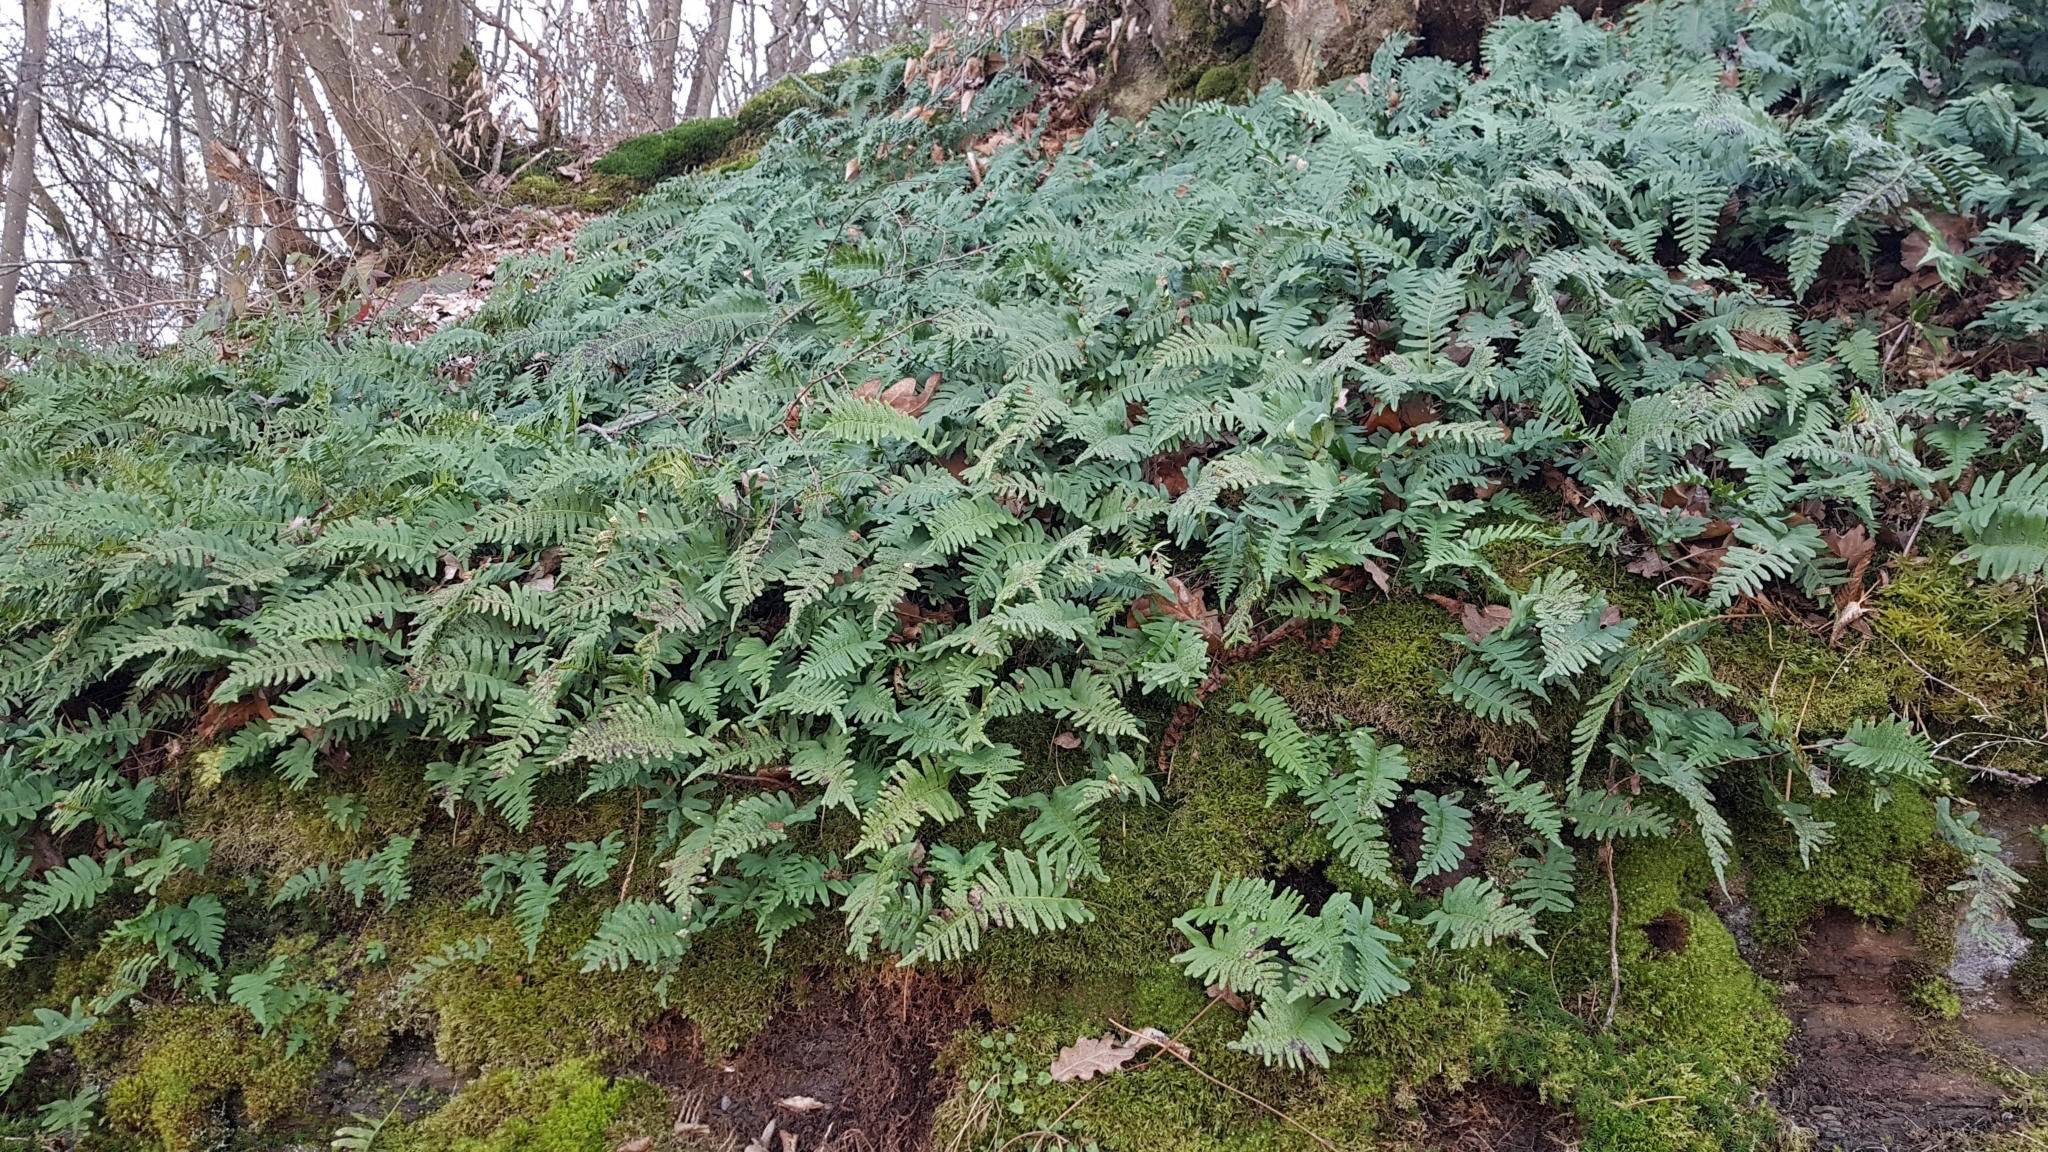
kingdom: Plantae
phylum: Tracheophyta
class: Polypodiopsida
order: Polypodiales
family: Polypodiaceae
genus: Polypodium
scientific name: Polypodium vulgare
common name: Common polypody
